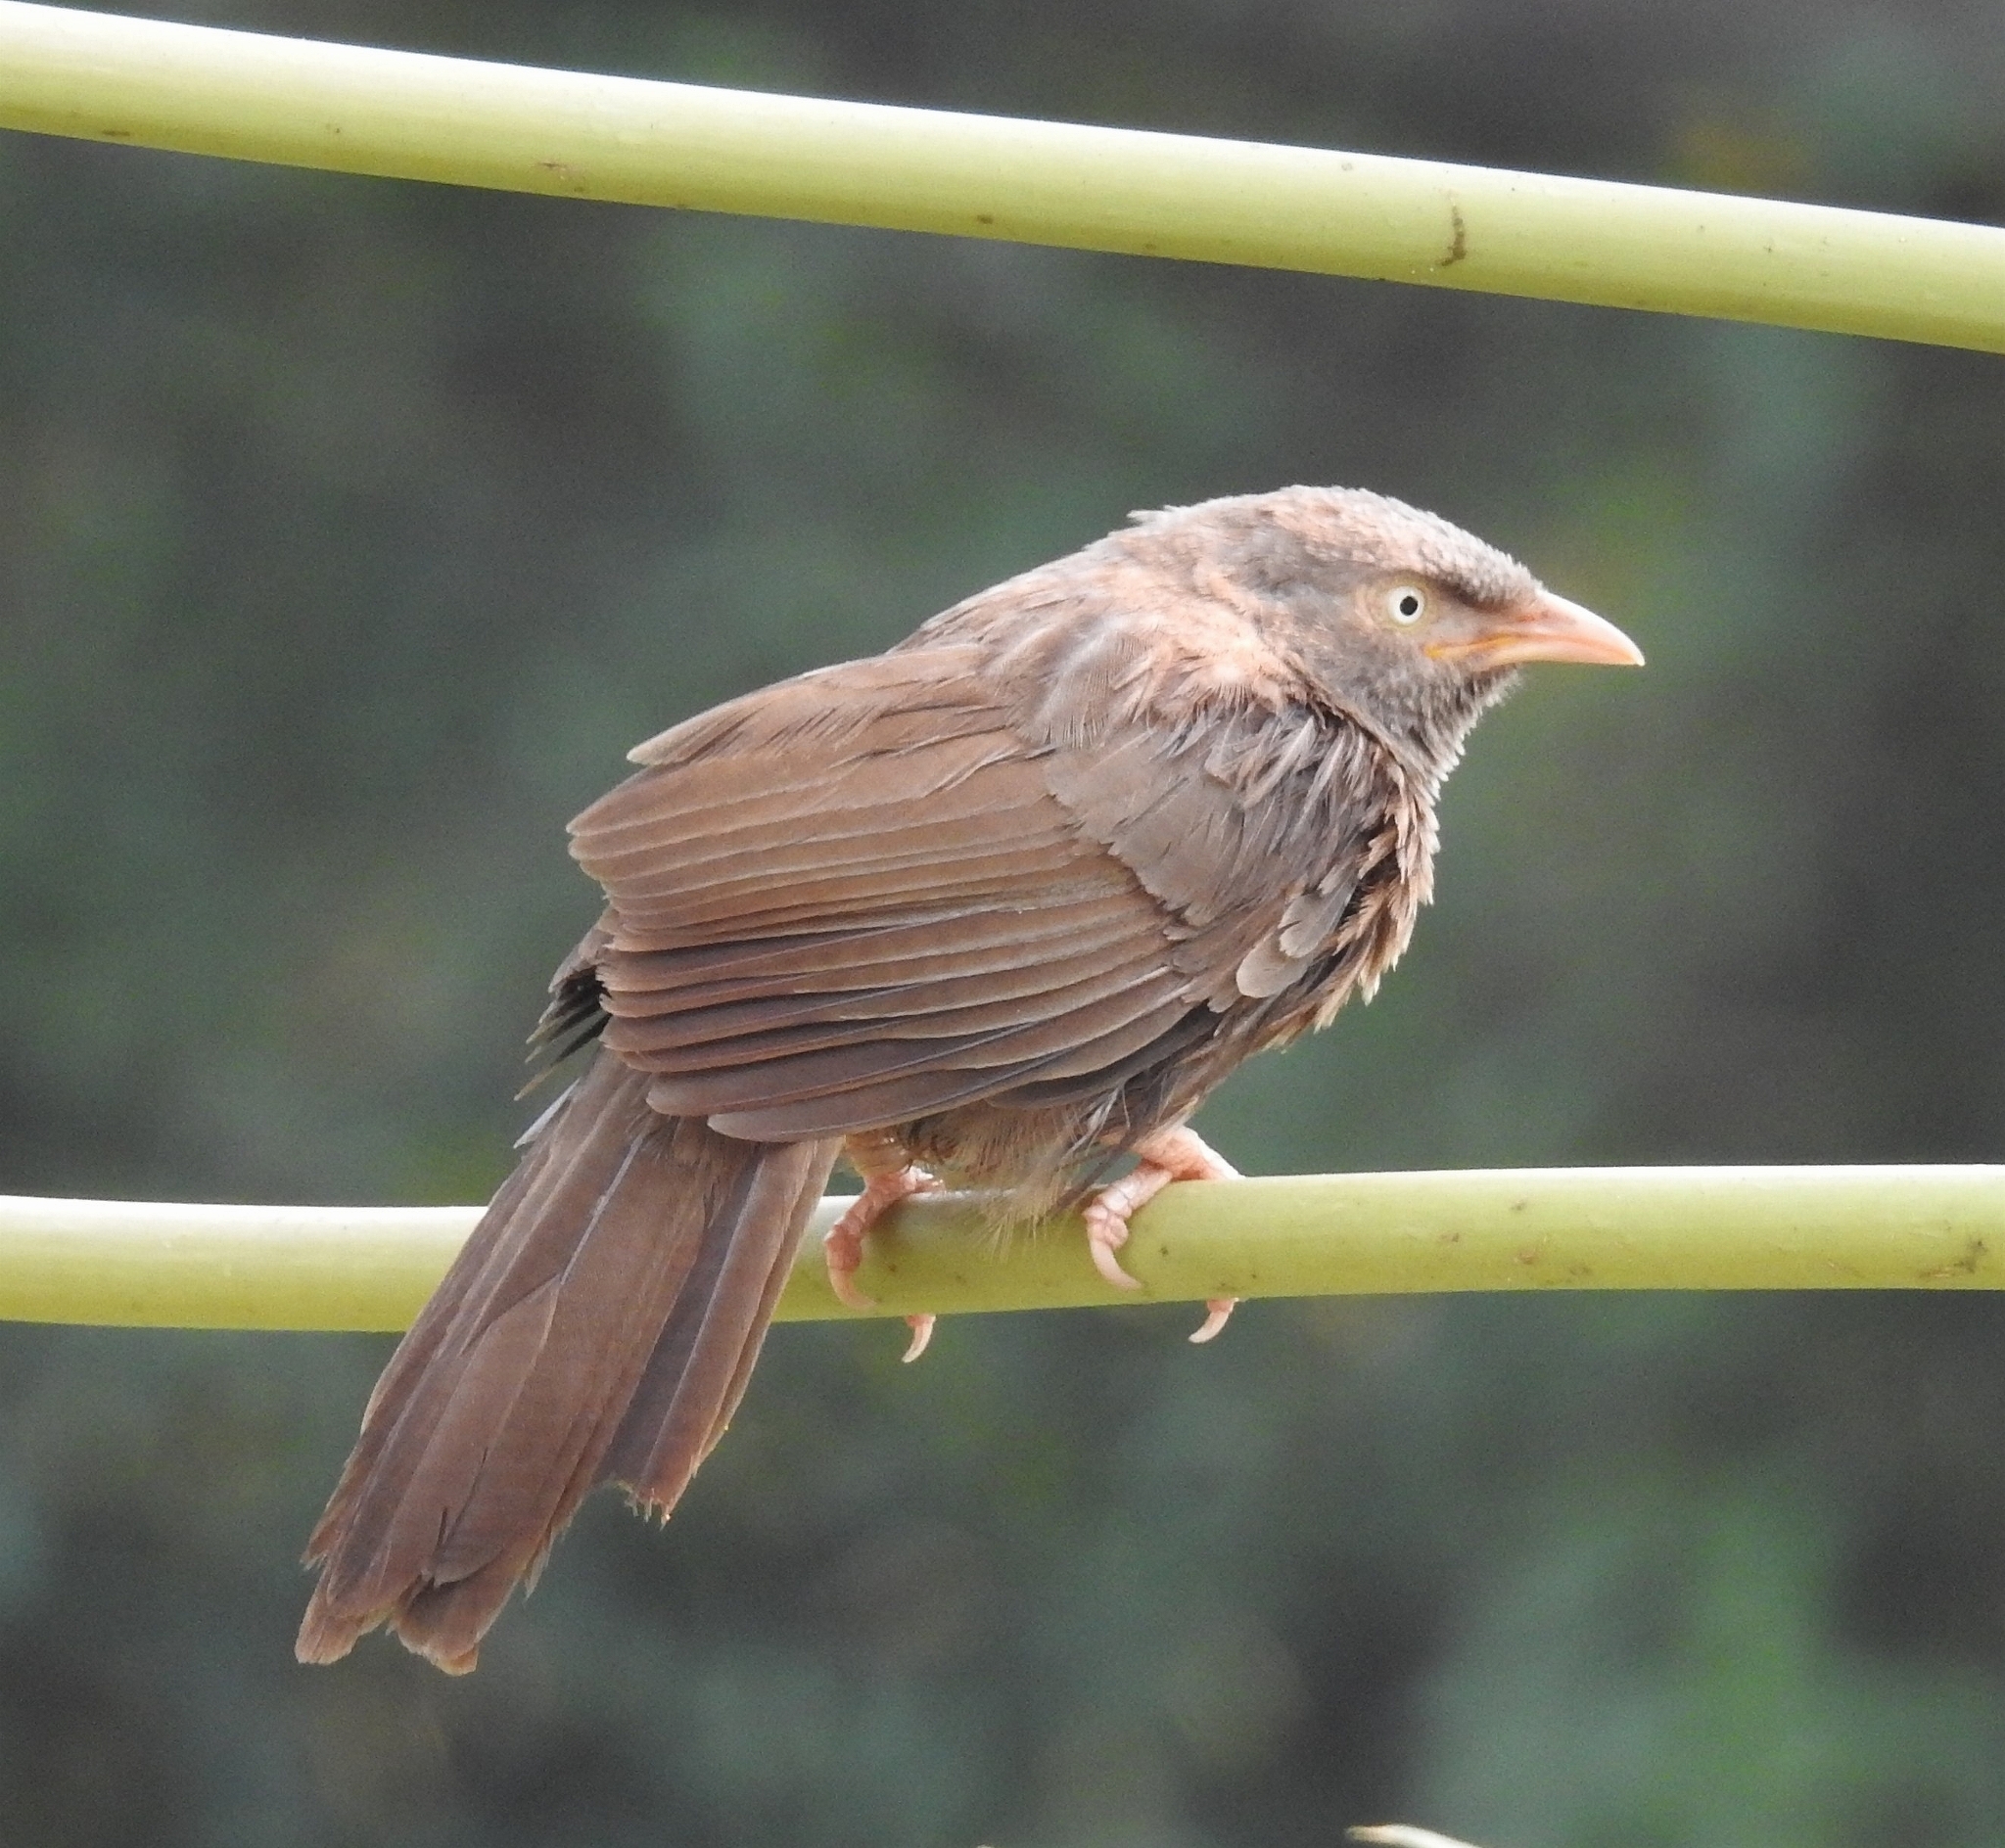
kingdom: Animalia
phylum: Chordata
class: Aves
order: Passeriformes
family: Leiothrichidae
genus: Turdoides
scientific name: Turdoides striata
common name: Jungle babbler
